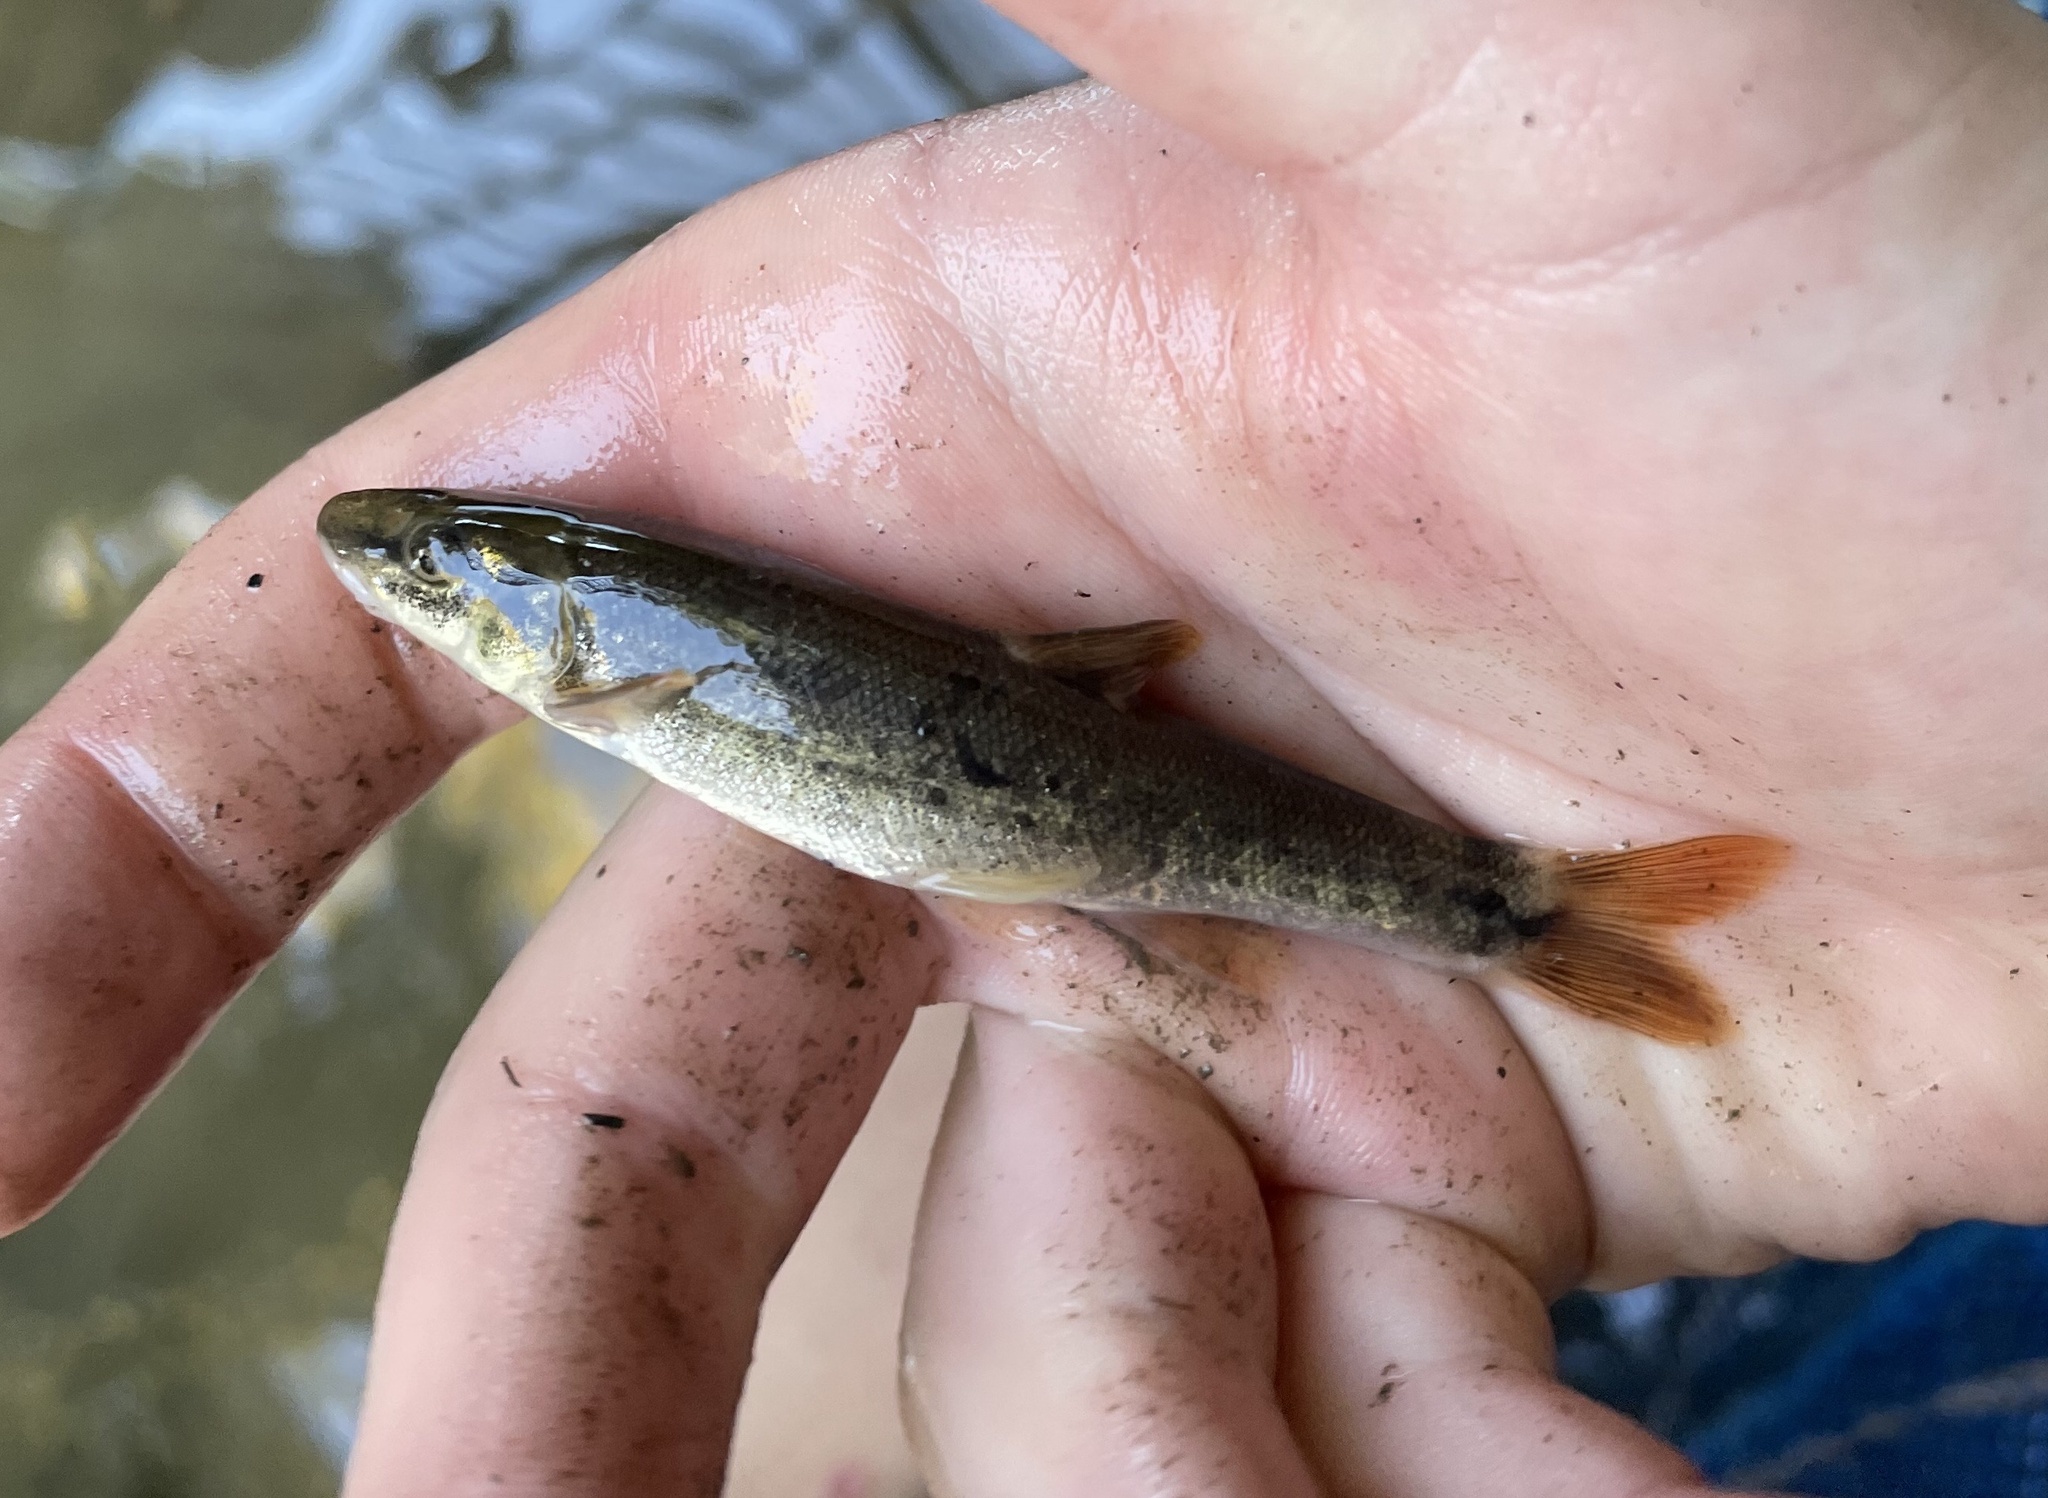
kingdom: Animalia
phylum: Chordata
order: Cypriniformes
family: Cyprinidae
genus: Rhinichthys
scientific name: Rhinichthys cataractae
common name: Longnose dace
